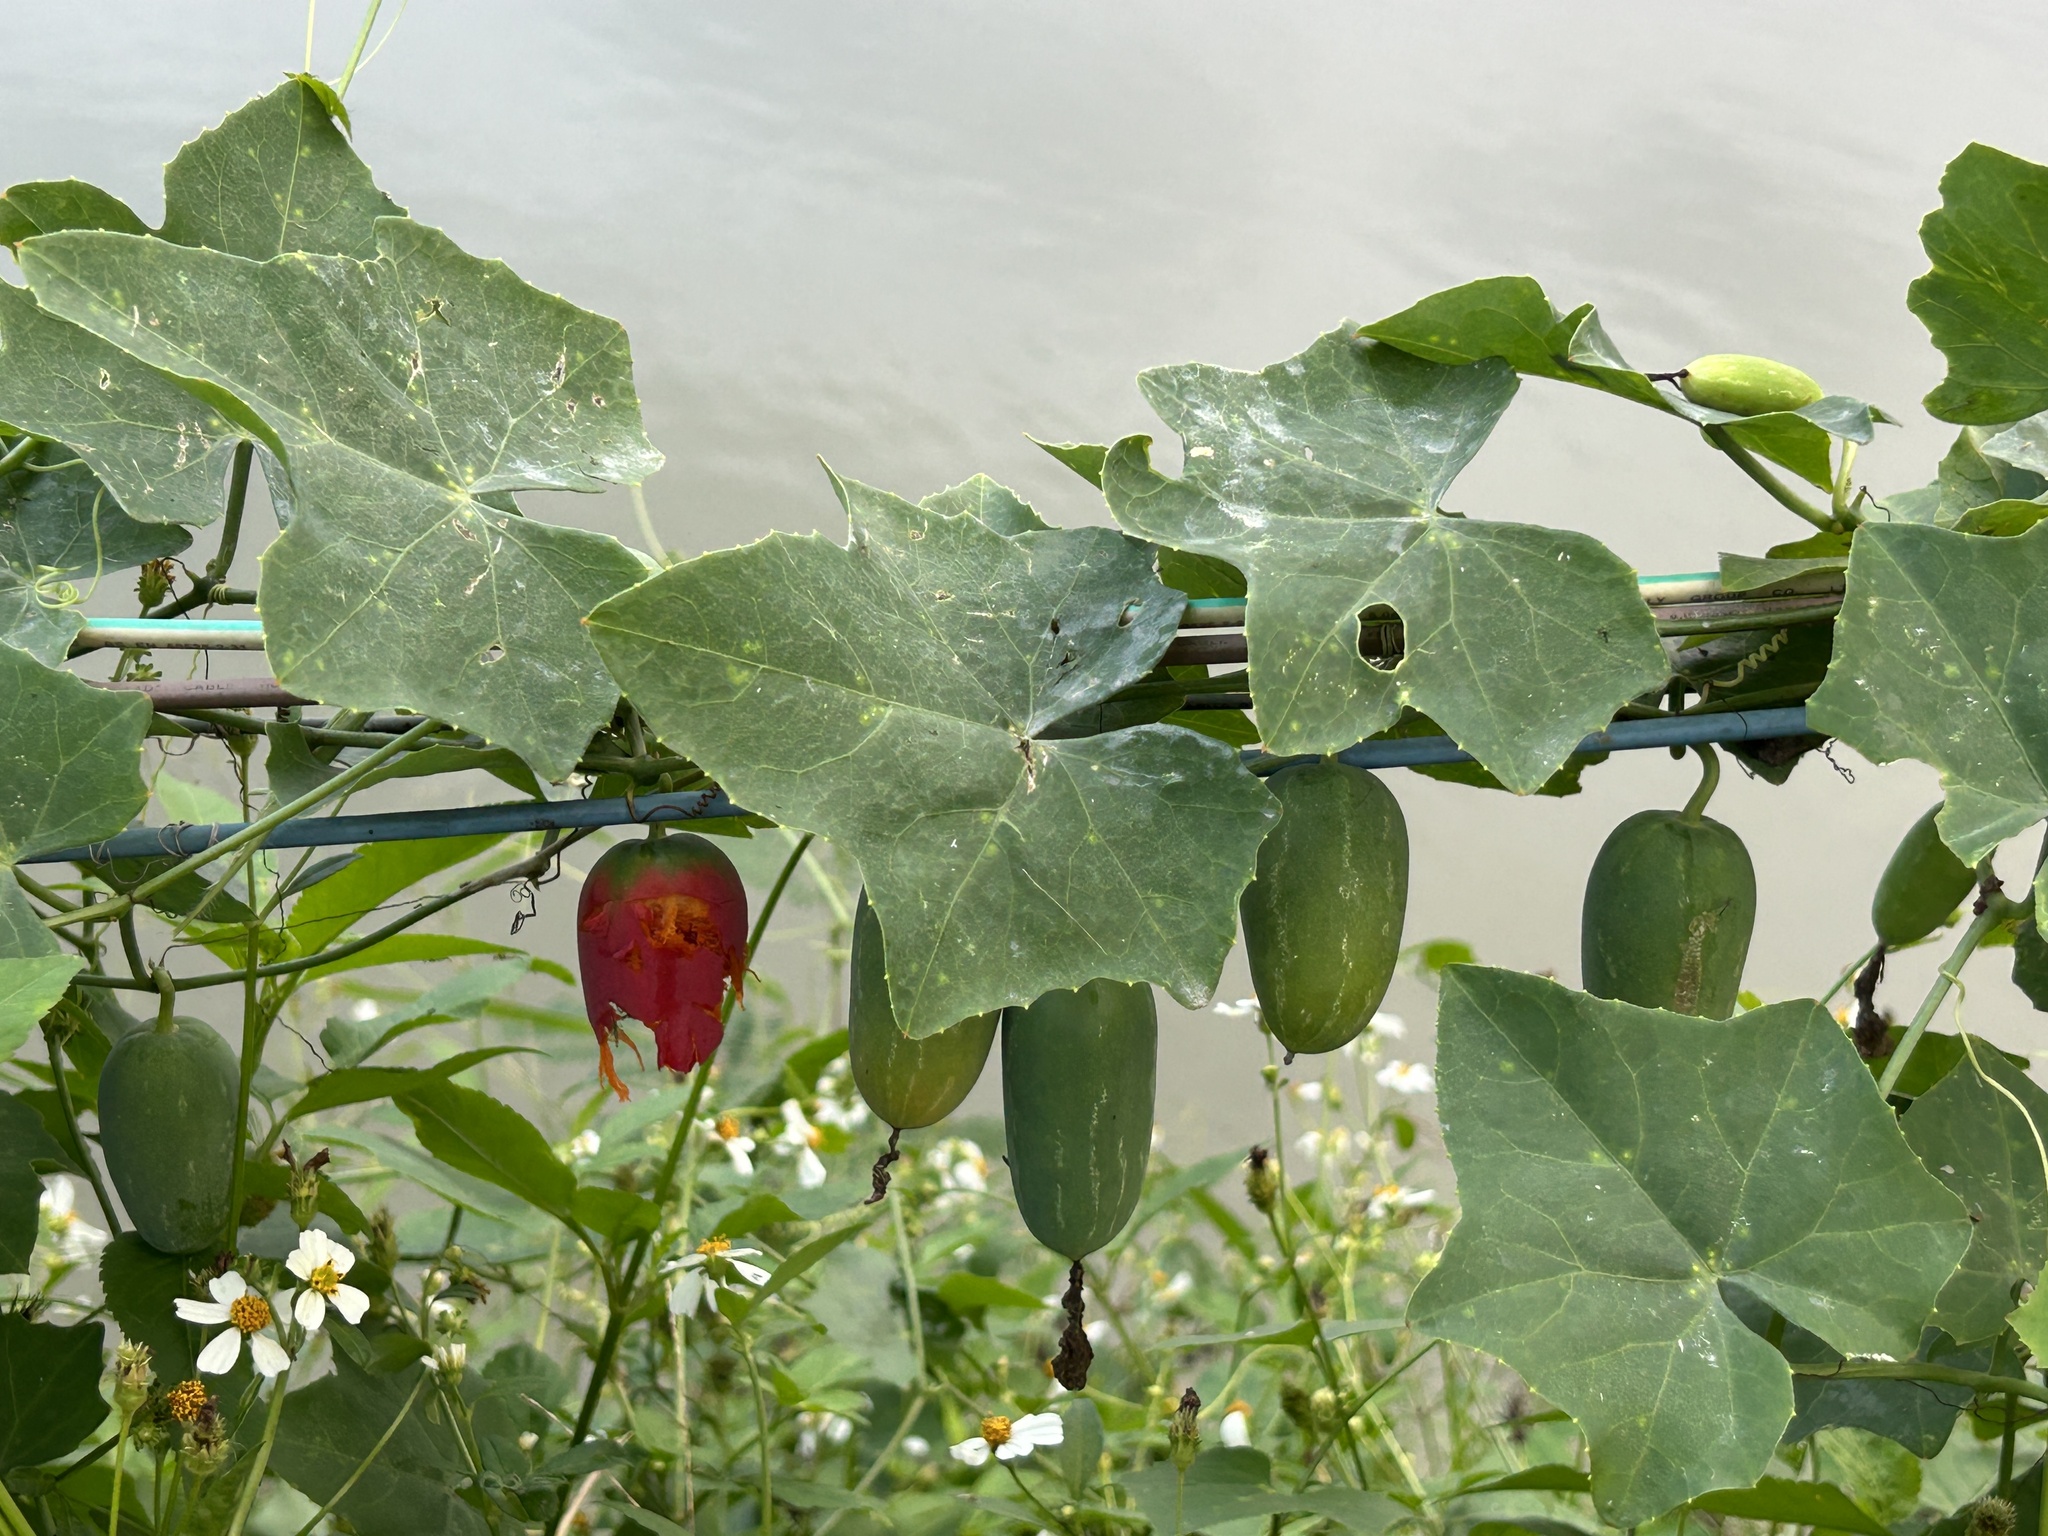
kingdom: Plantae
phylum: Tracheophyta
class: Magnoliopsida
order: Cucurbitales
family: Cucurbitaceae
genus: Coccinia
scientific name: Coccinia grandis
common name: Ivy gourd
